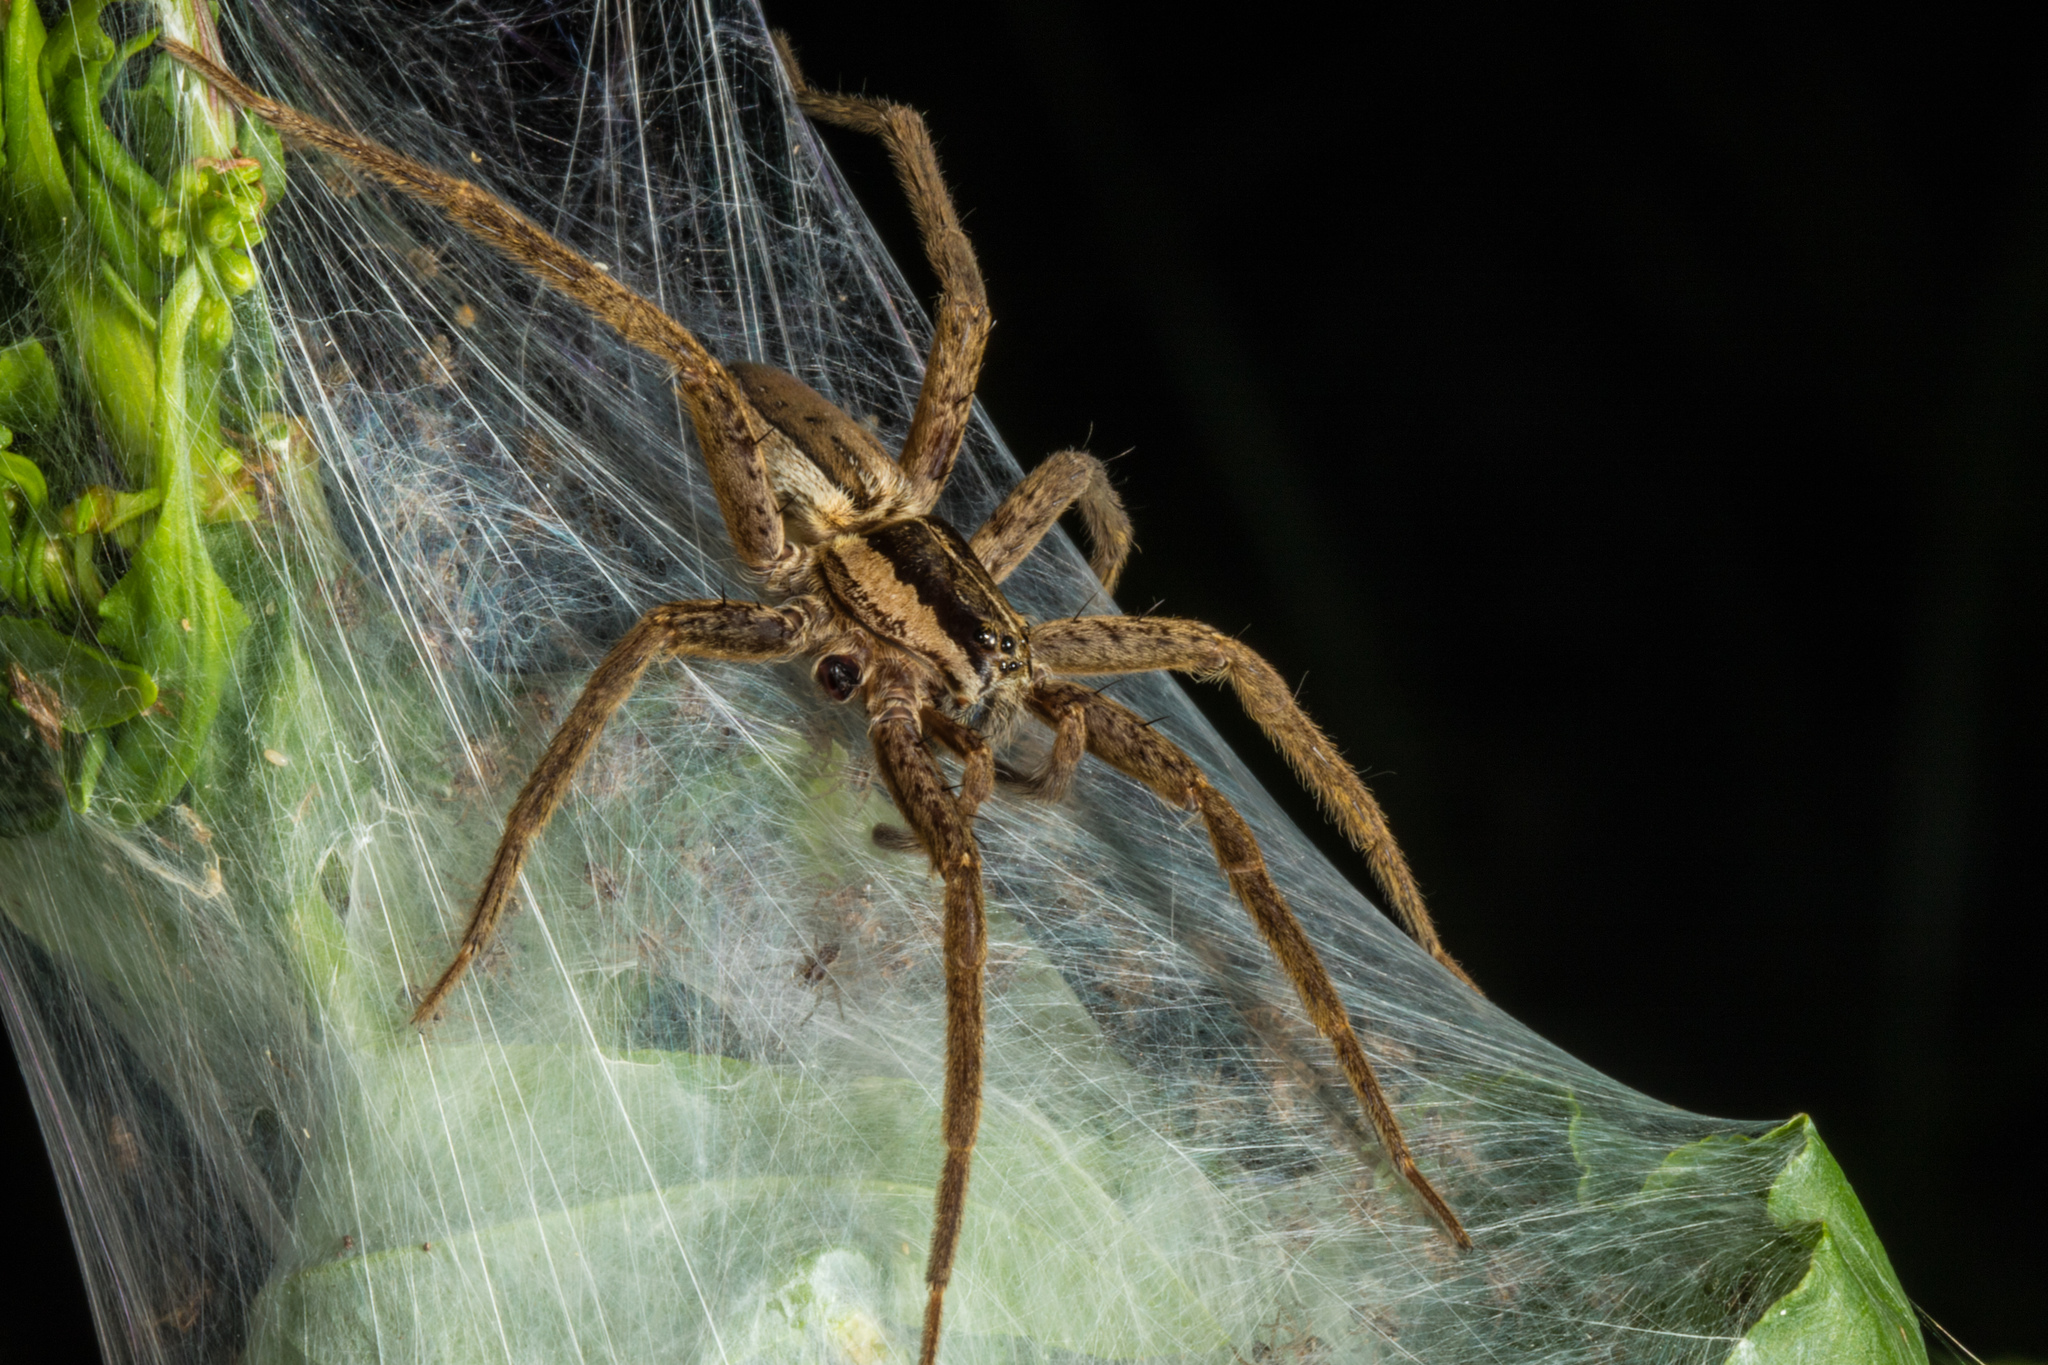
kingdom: Animalia
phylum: Arthropoda
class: Arachnida
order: Araneae
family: Pisauridae
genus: Dolomedes
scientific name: Dolomedes minor
